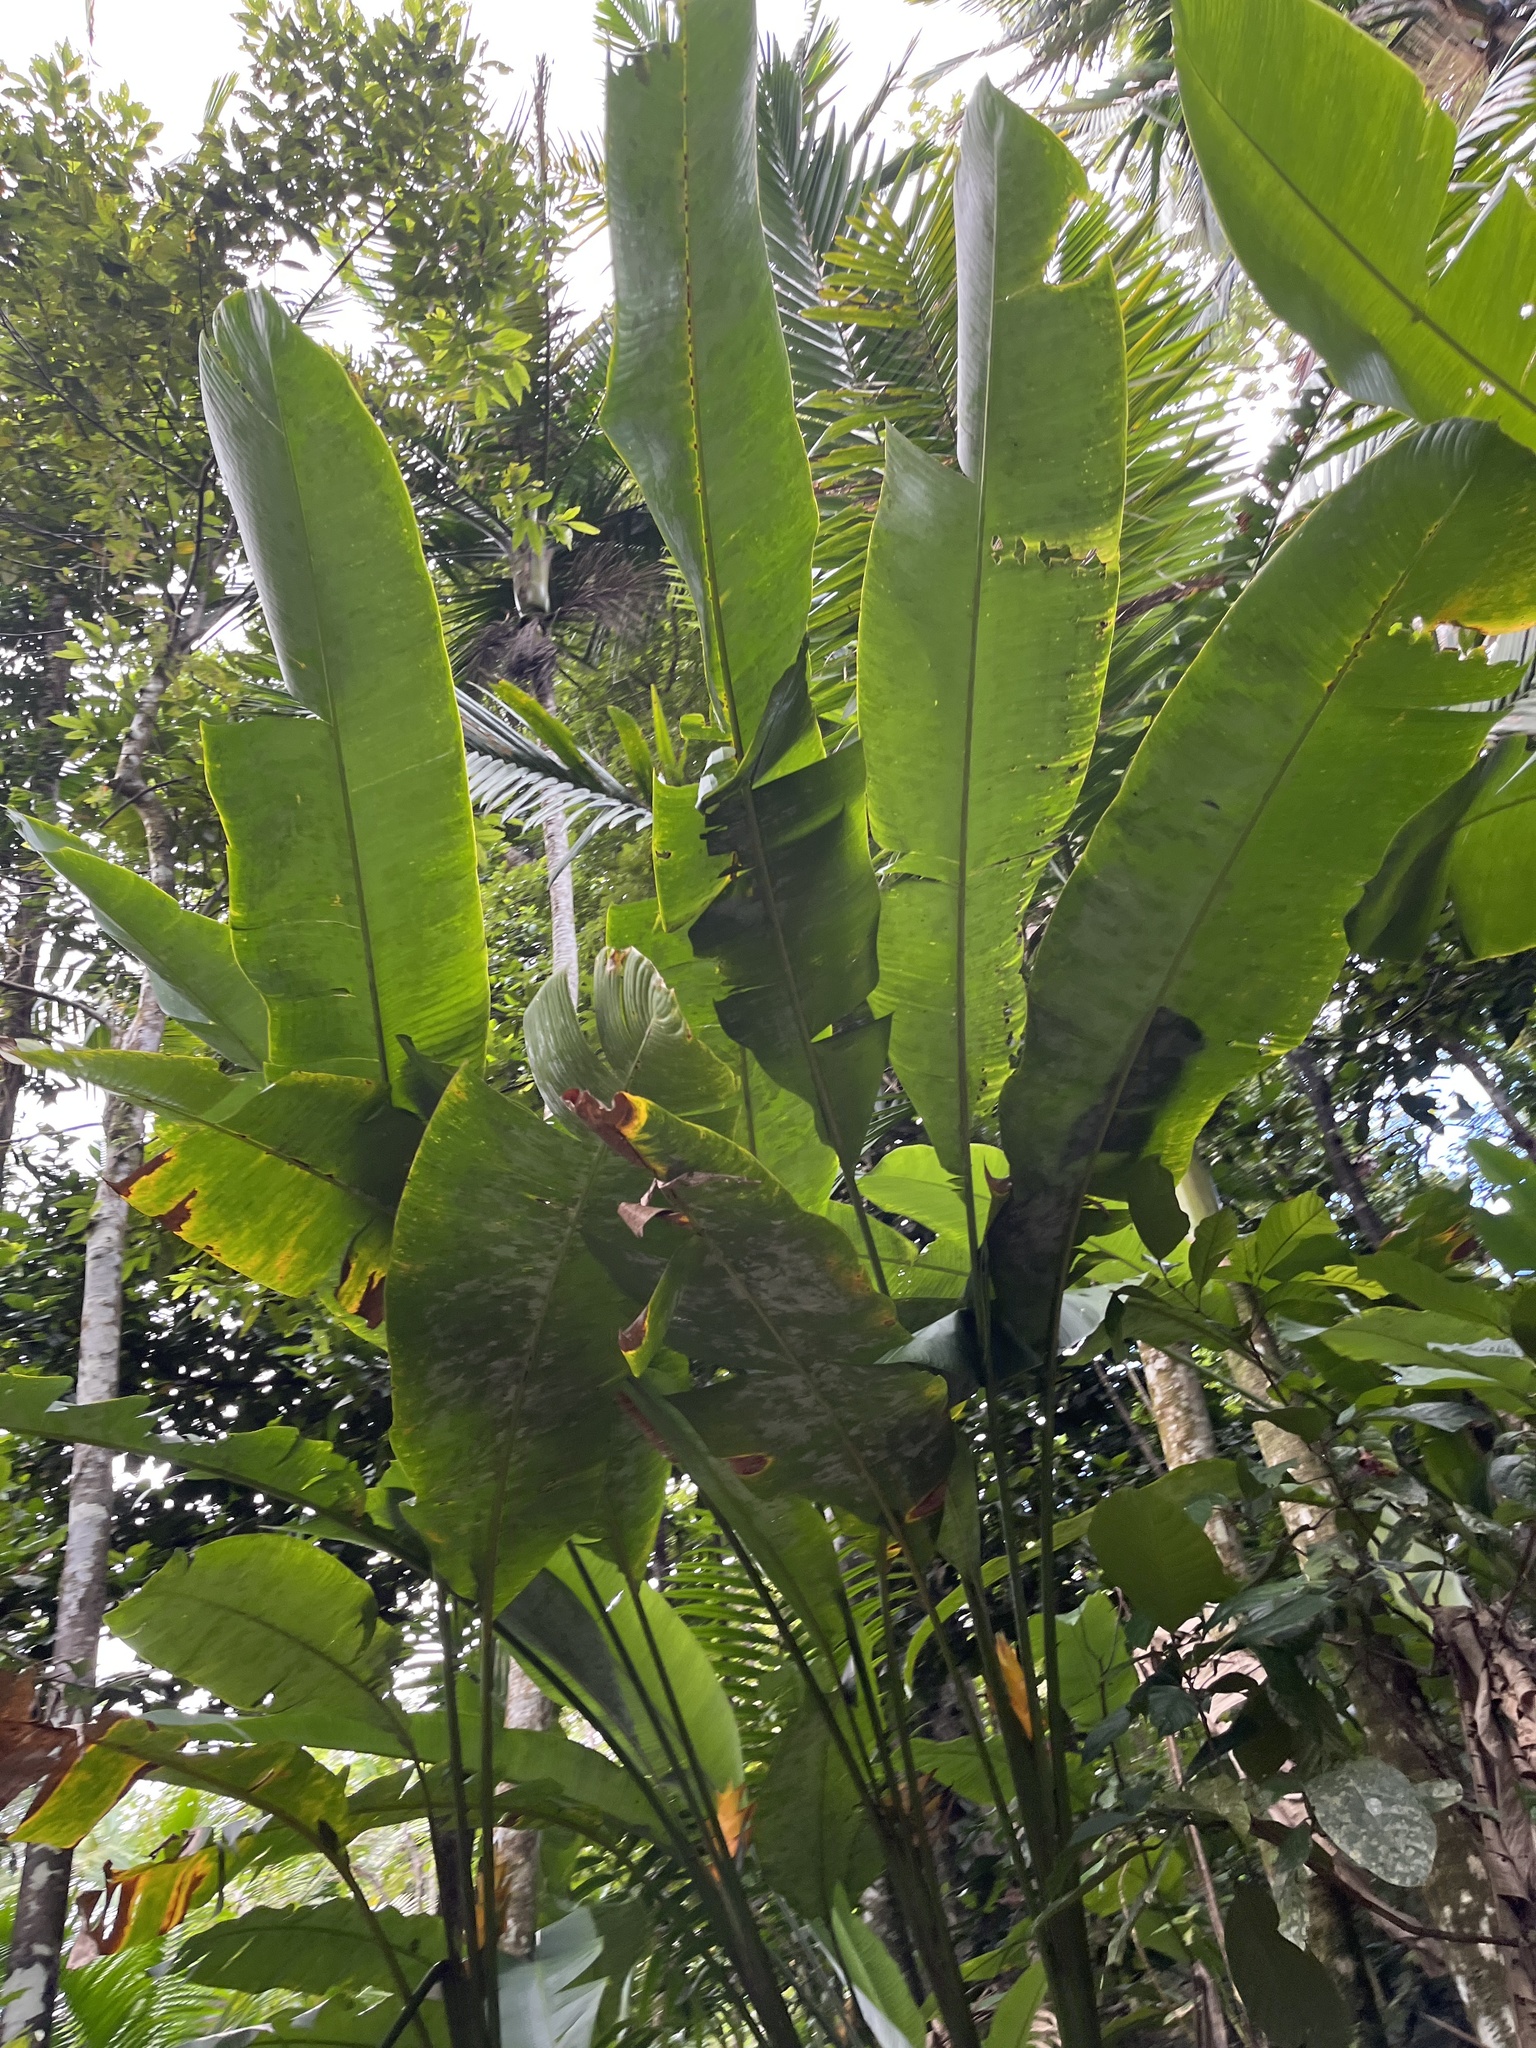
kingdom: Plantae
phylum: Tracheophyta
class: Liliopsida
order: Zingiberales
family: Heliconiaceae
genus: Heliconia
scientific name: Heliconia caribaea
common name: Wild plantain
